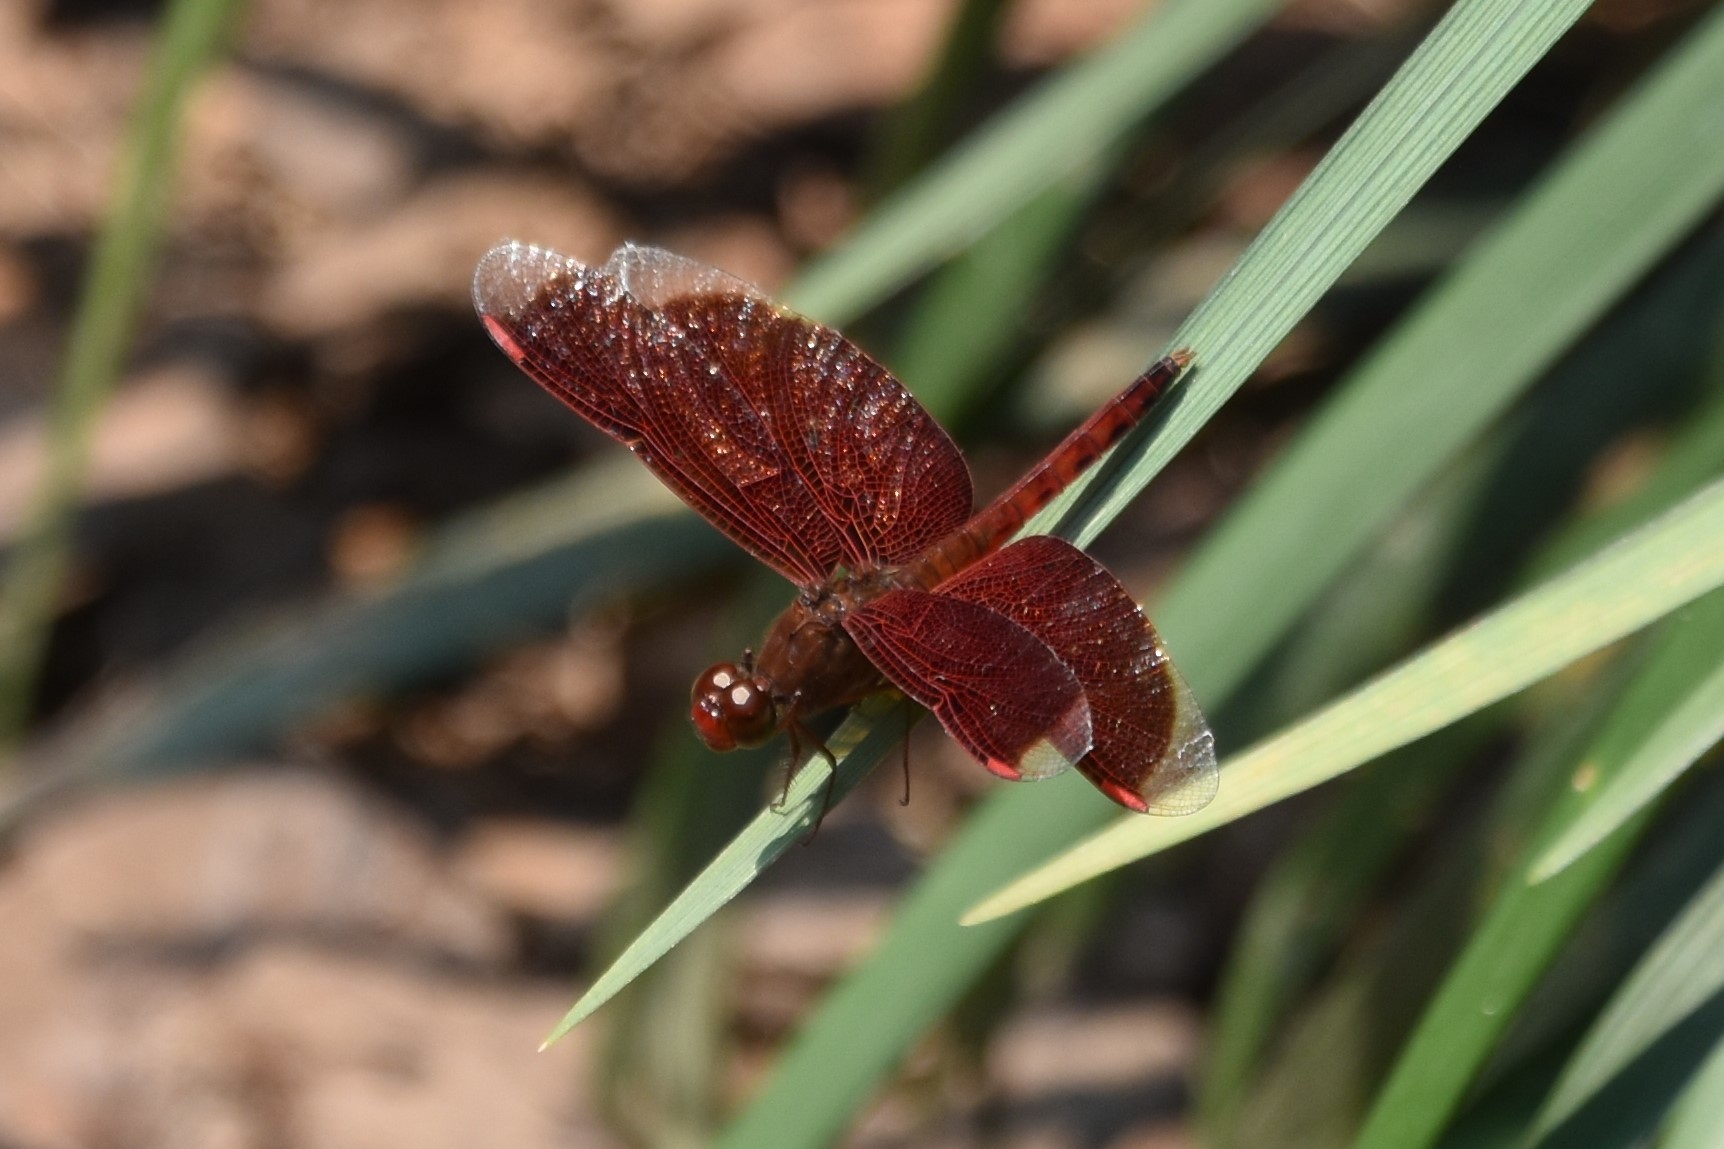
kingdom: Animalia
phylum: Arthropoda
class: Insecta
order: Odonata
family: Libellulidae
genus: Neurothemis
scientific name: Neurothemis fluctuans
